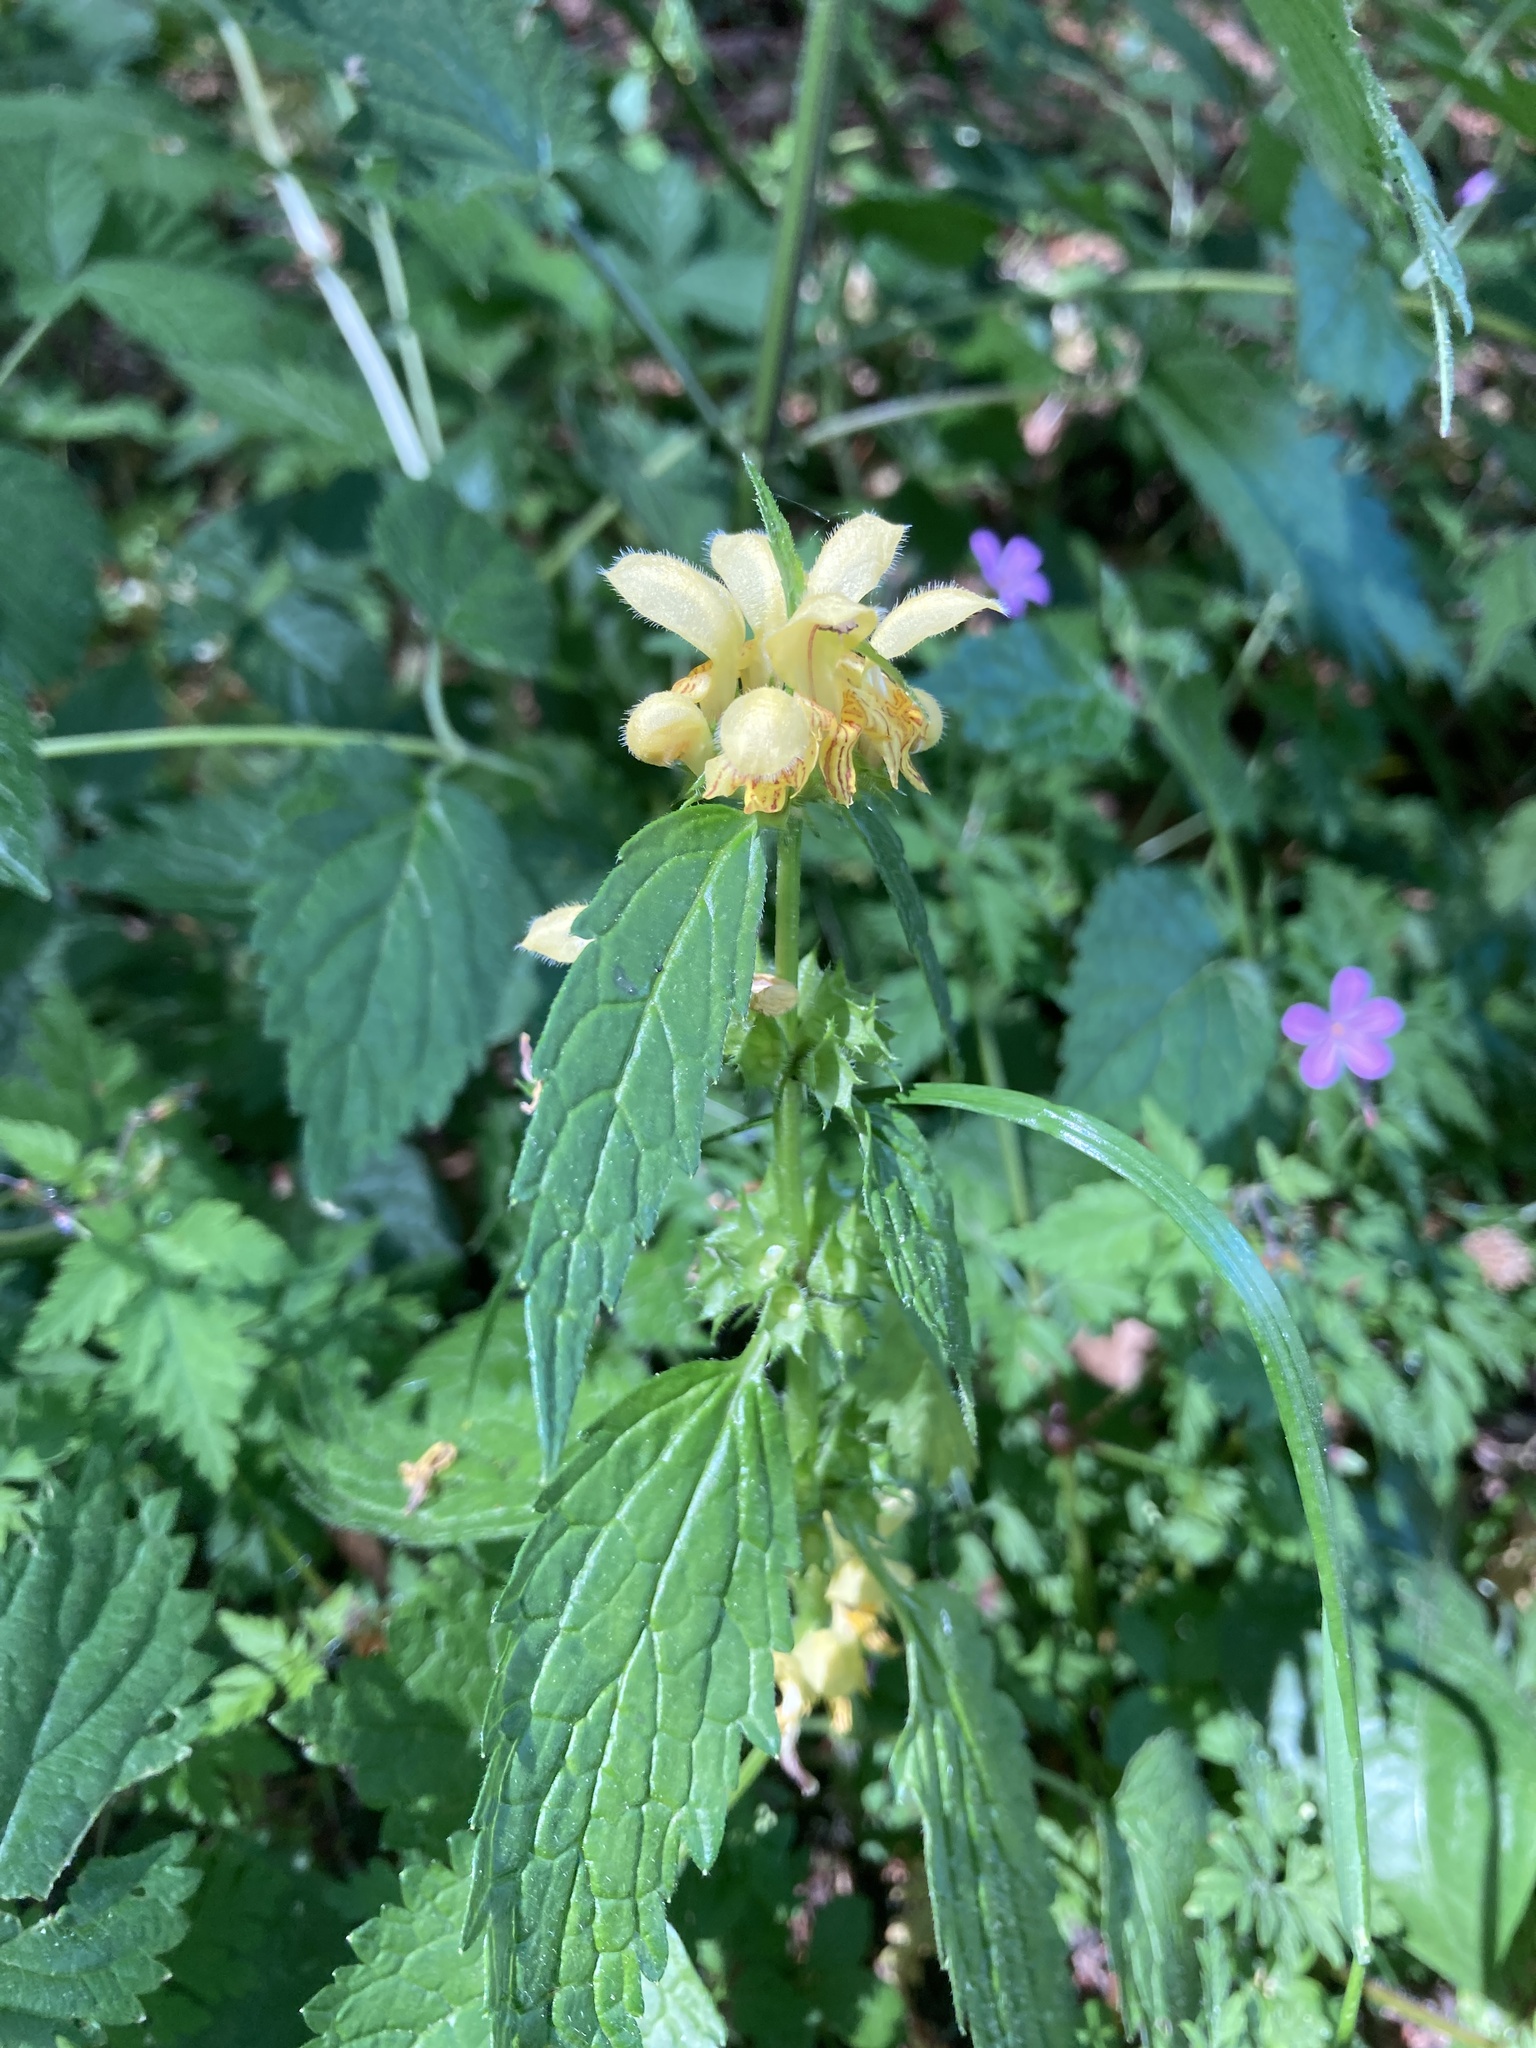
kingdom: Plantae
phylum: Tracheophyta
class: Magnoliopsida
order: Lamiales
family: Lamiaceae
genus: Lamium
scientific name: Lamium galeobdolon
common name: Yellow archangel
